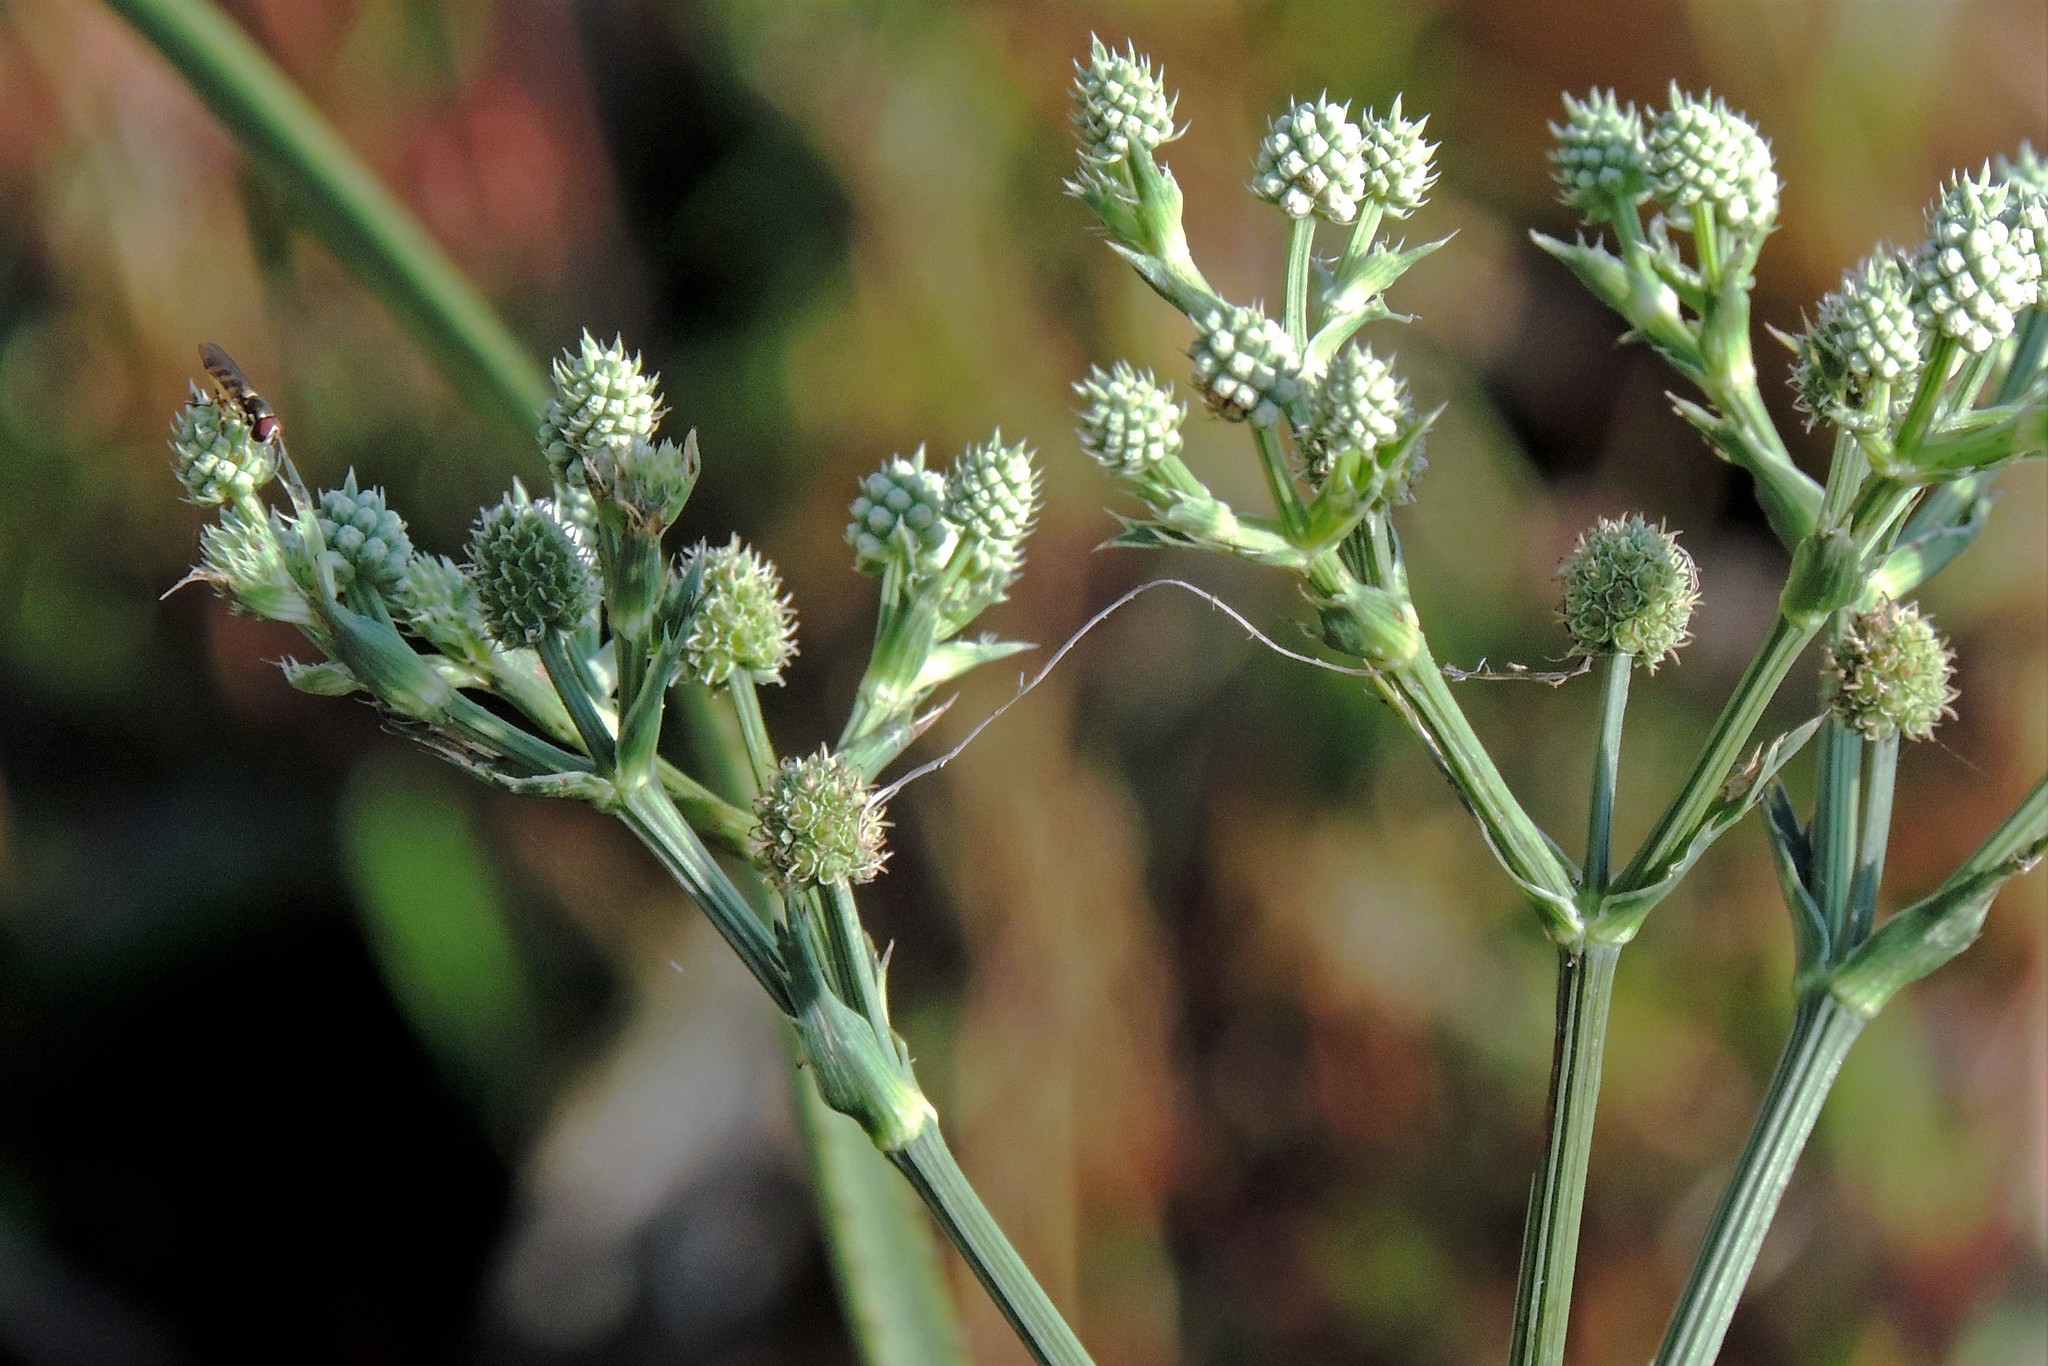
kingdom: Plantae
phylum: Tracheophyta
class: Magnoliopsida
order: Apiales
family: Apiaceae
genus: Eryngium
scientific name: Eryngium humboldtii
